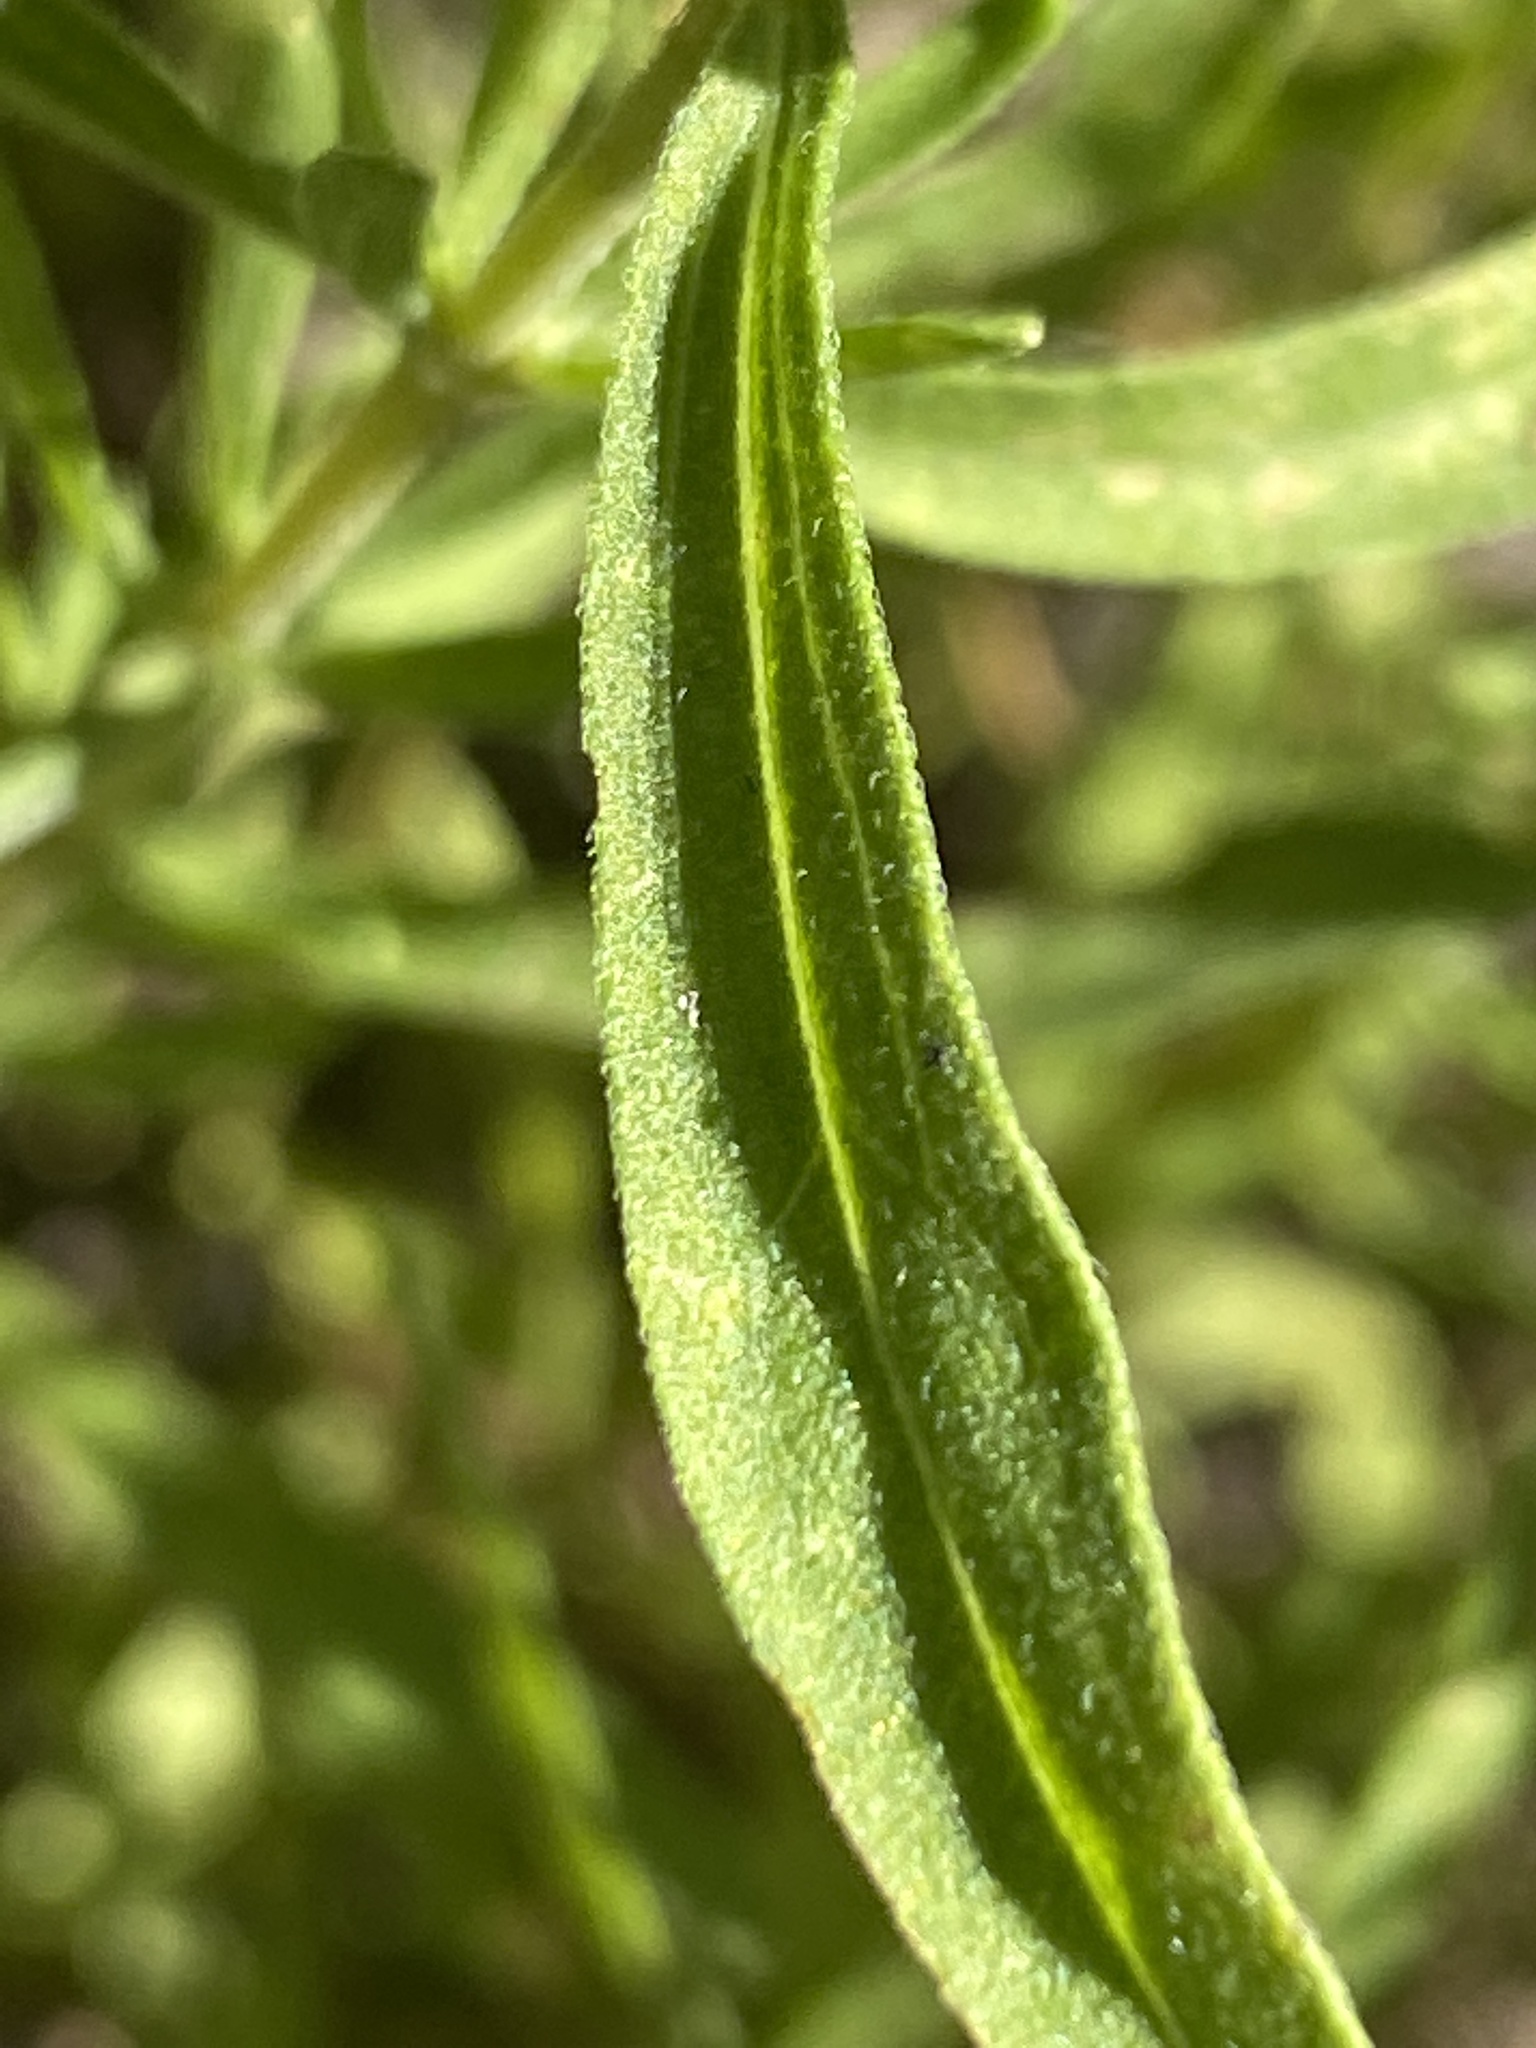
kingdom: Plantae
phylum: Tracheophyta
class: Magnoliopsida
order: Asterales
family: Asteraceae
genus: Eupatorium
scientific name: Eupatorium linearifolium
